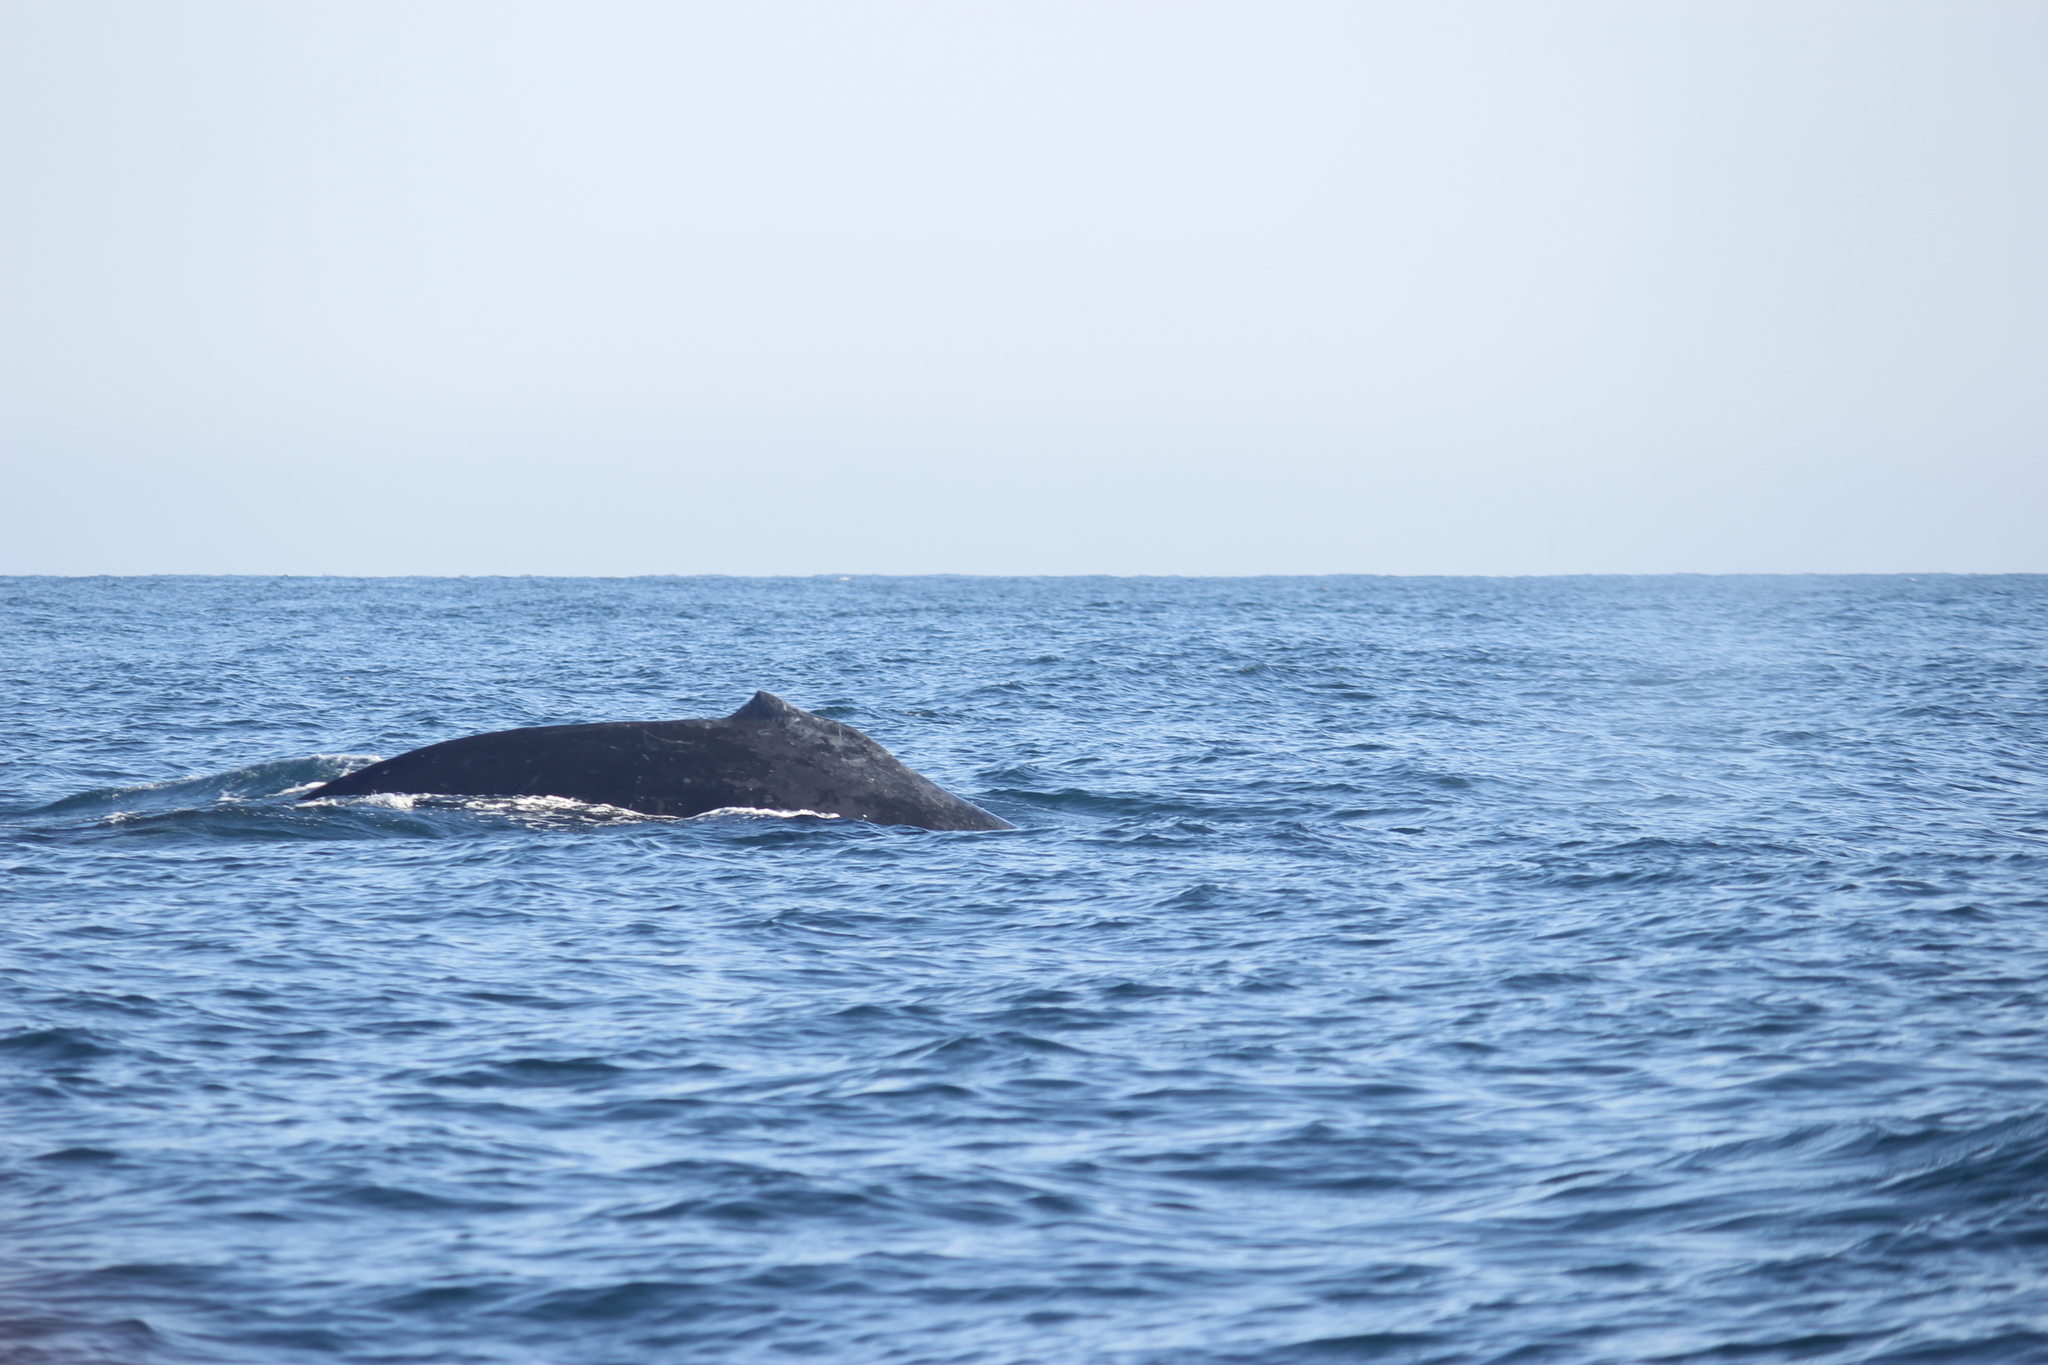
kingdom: Animalia
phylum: Chordata
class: Mammalia
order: Cetacea
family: Balaenopteridae
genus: Megaptera
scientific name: Megaptera novaeangliae
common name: Humpback whale
